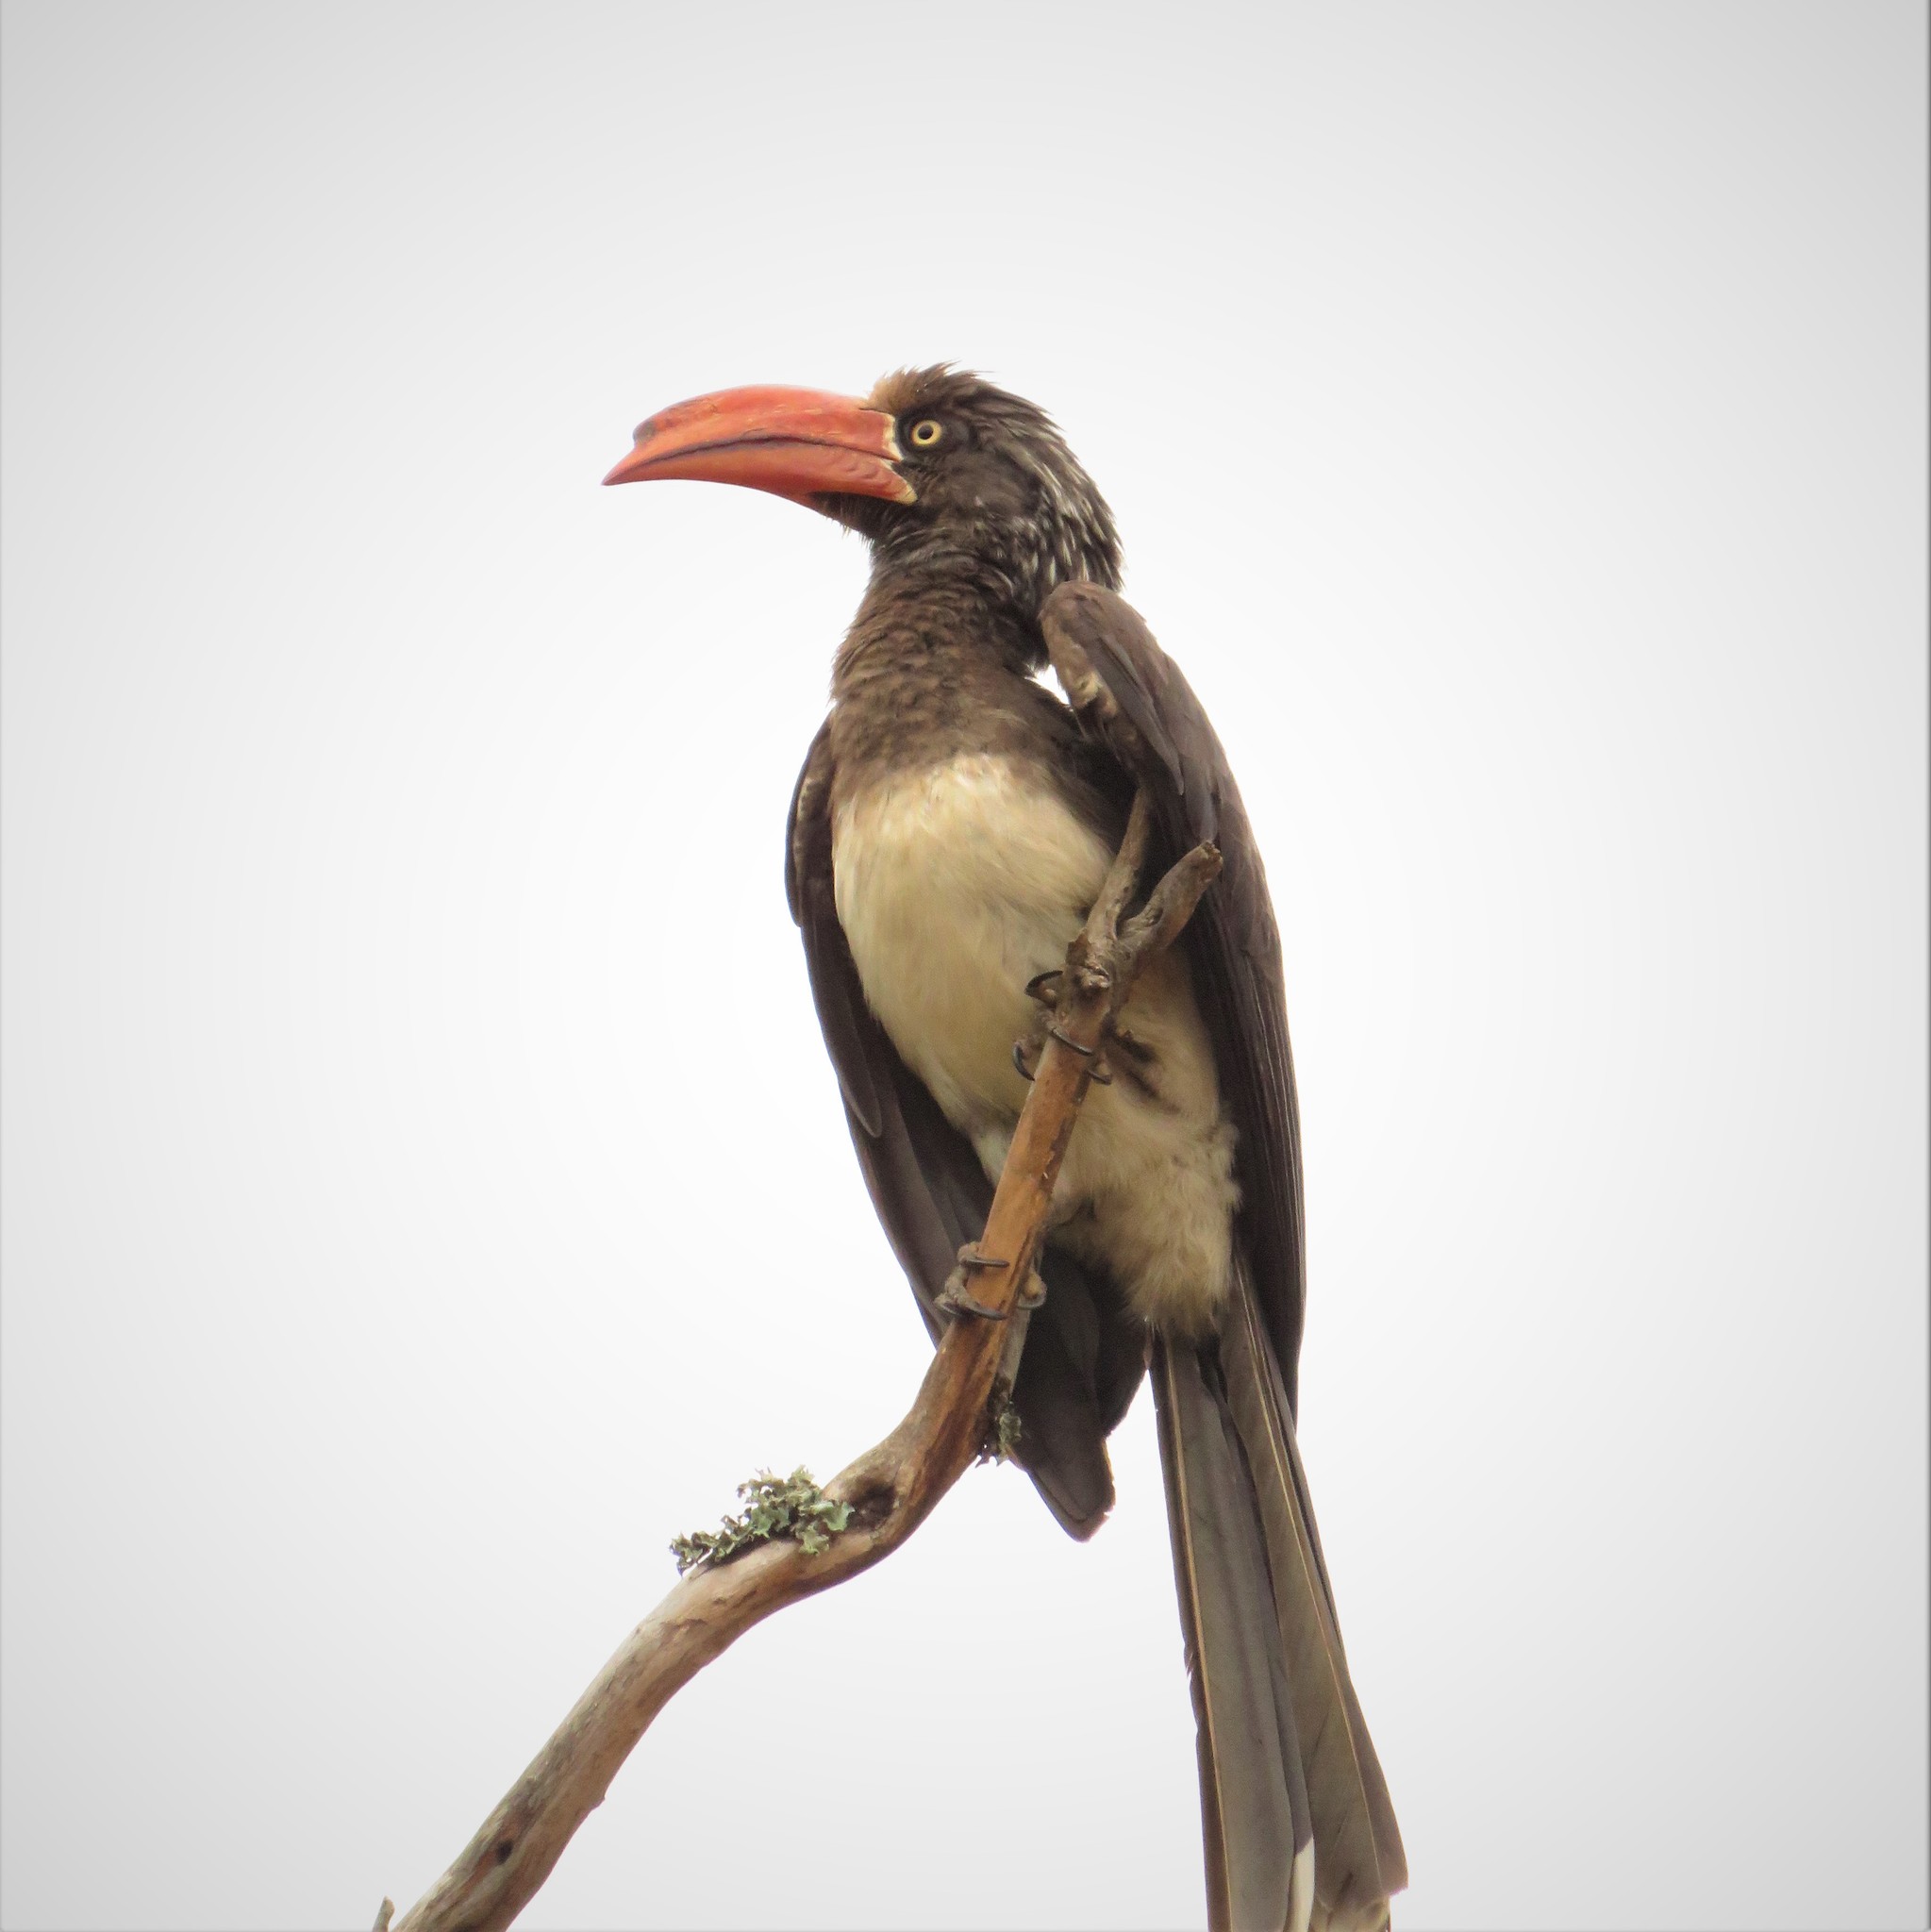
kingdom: Animalia
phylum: Chordata
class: Aves
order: Bucerotiformes
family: Bucerotidae
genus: Lophoceros
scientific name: Lophoceros alboterminatus
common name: Crowned hornbill
